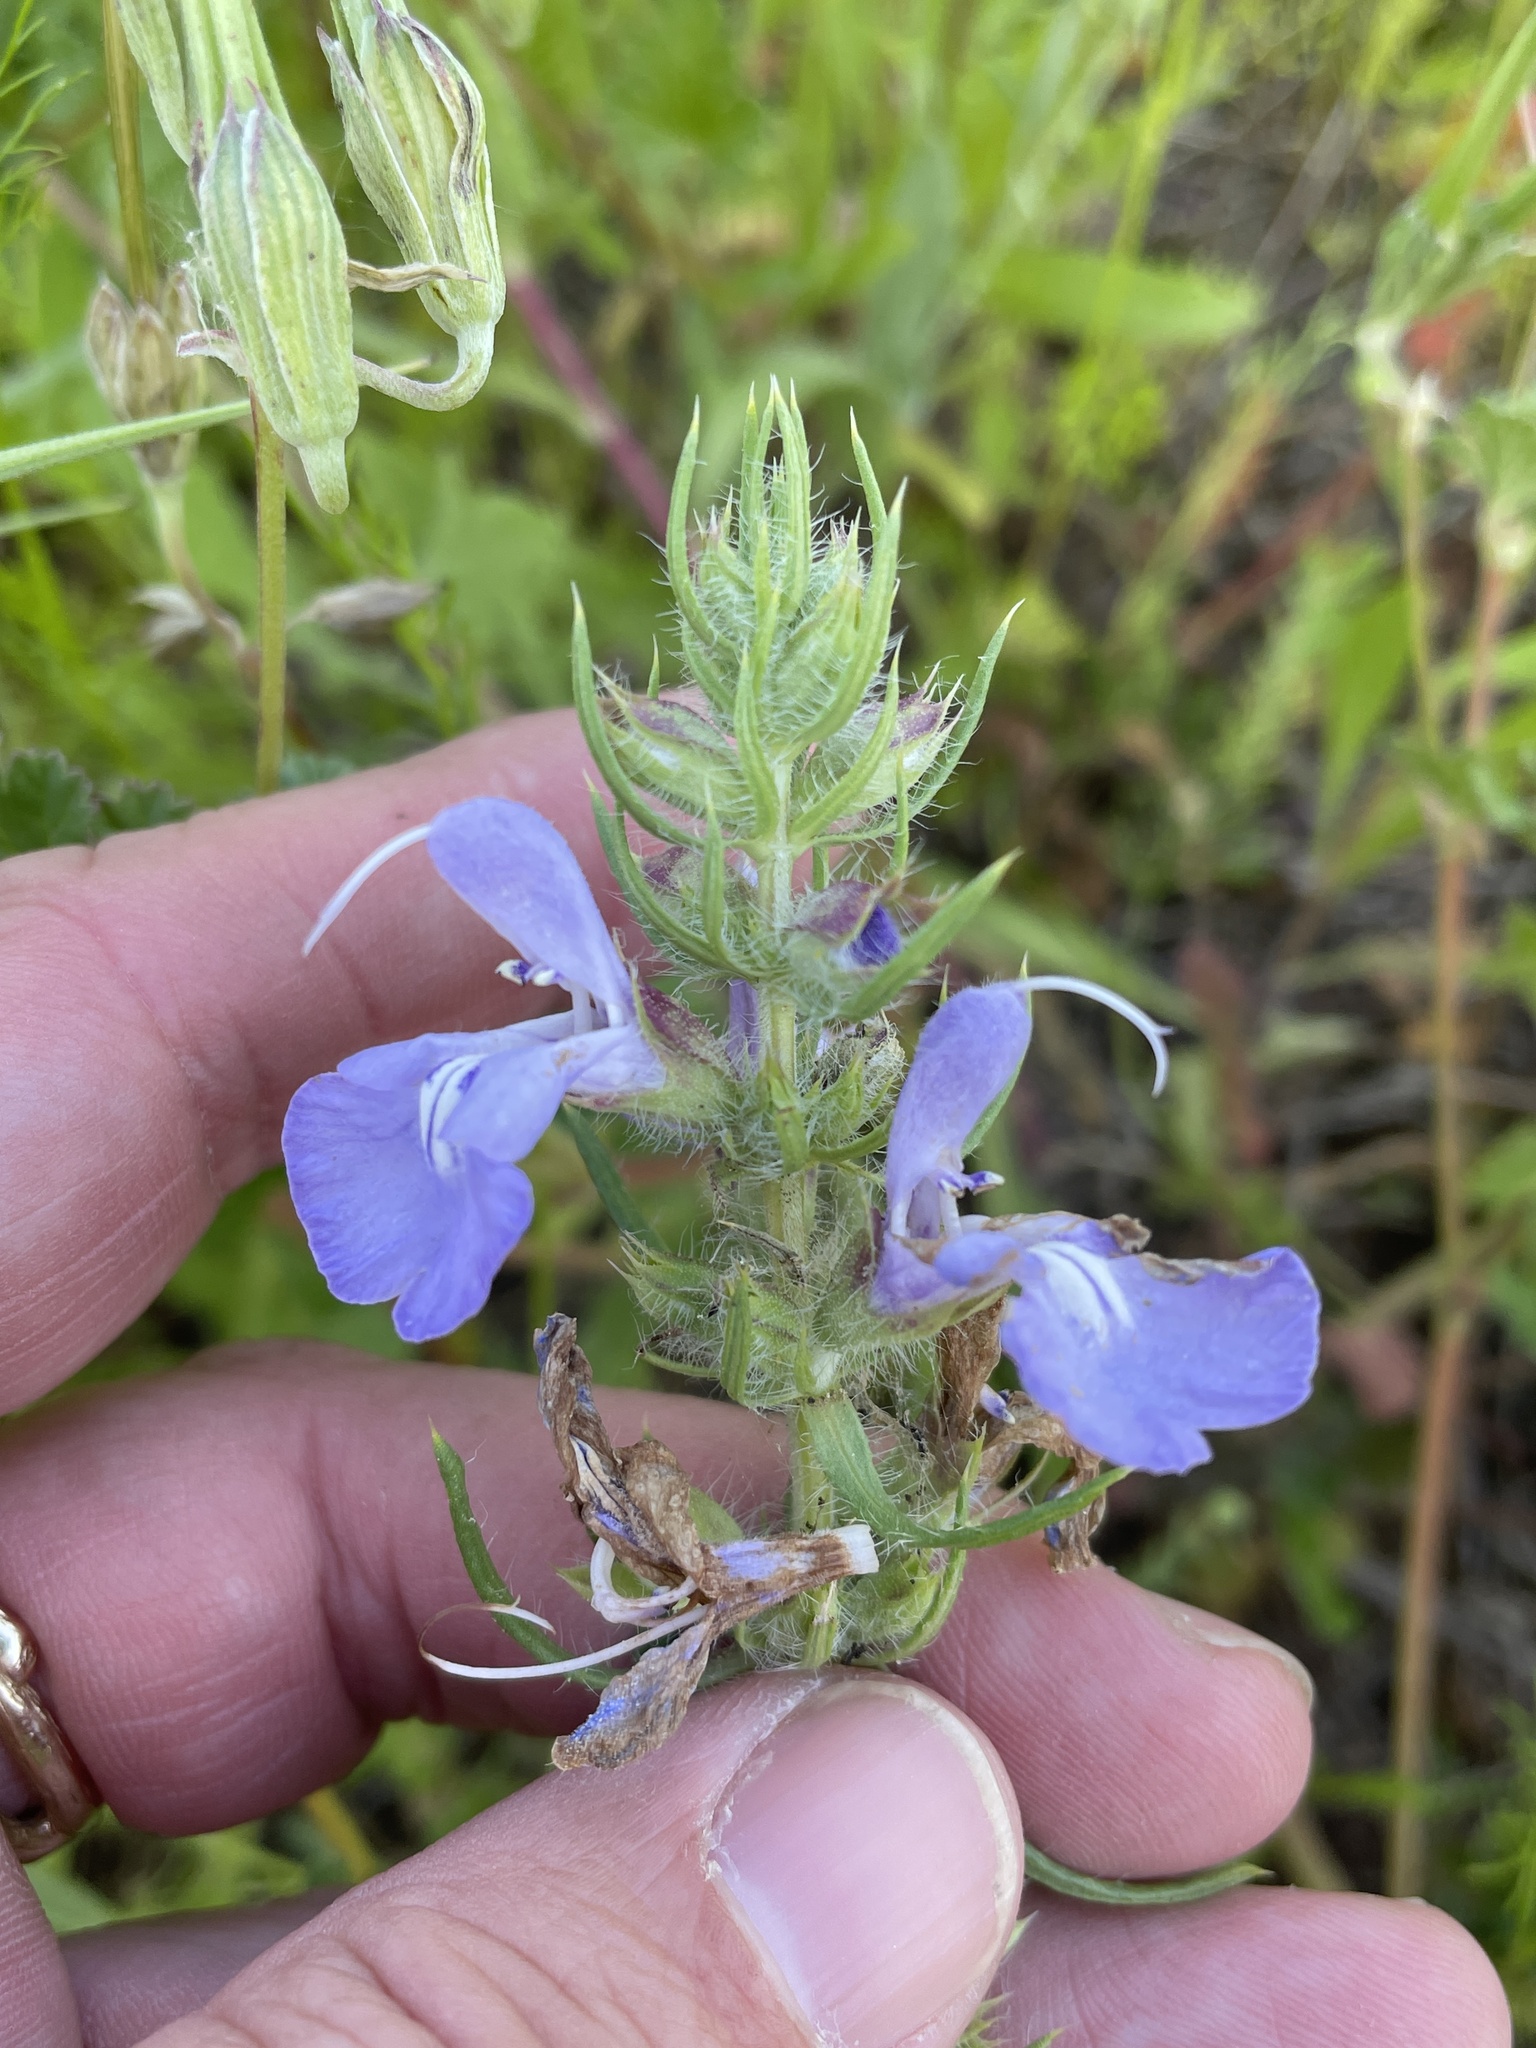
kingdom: Plantae
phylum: Tracheophyta
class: Magnoliopsida
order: Lamiales
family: Lamiaceae
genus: Salvia
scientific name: Salvia engelmannii
